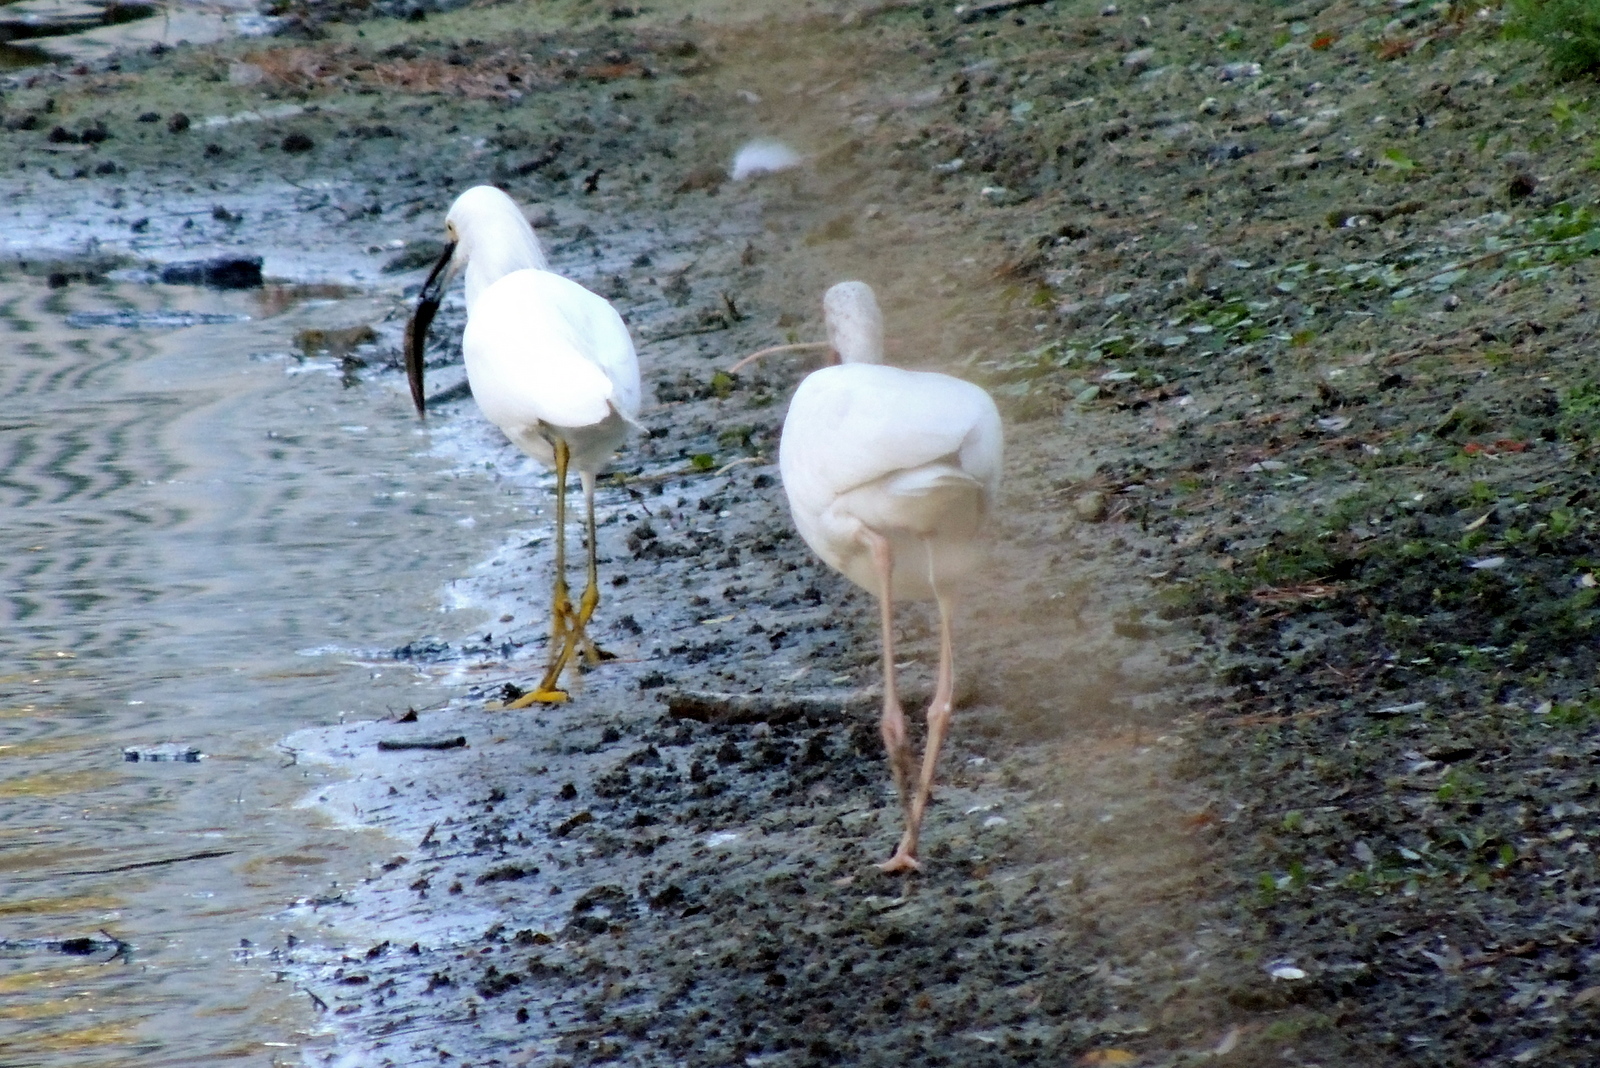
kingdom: Animalia
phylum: Chordata
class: Aves
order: Pelecaniformes
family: Ardeidae
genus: Egretta
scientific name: Egretta thula
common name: Snowy egret
